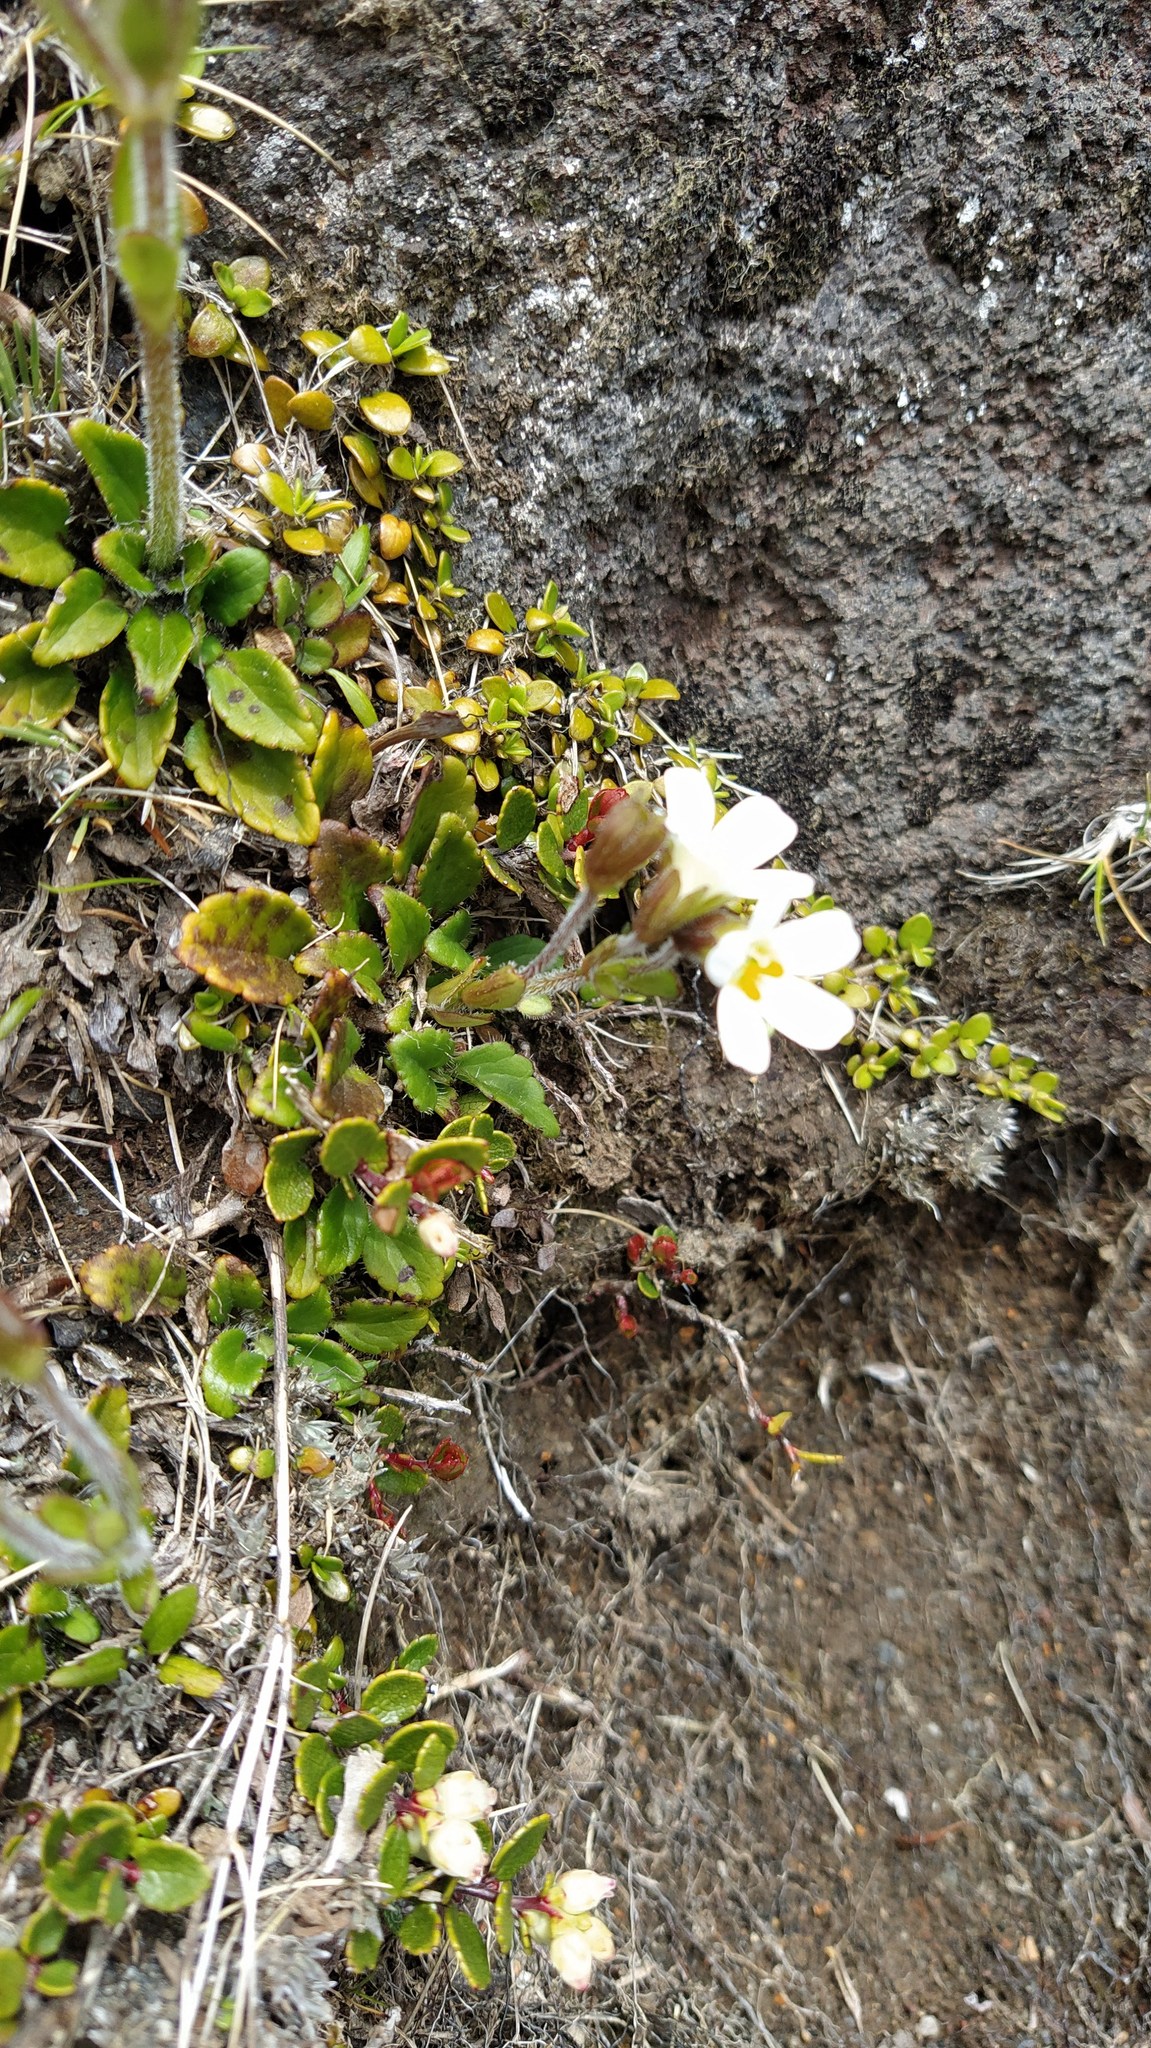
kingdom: Plantae
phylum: Tracheophyta
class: Magnoliopsida
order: Lamiales
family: Plantaginaceae
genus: Ourisia
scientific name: Ourisia vulcanica
